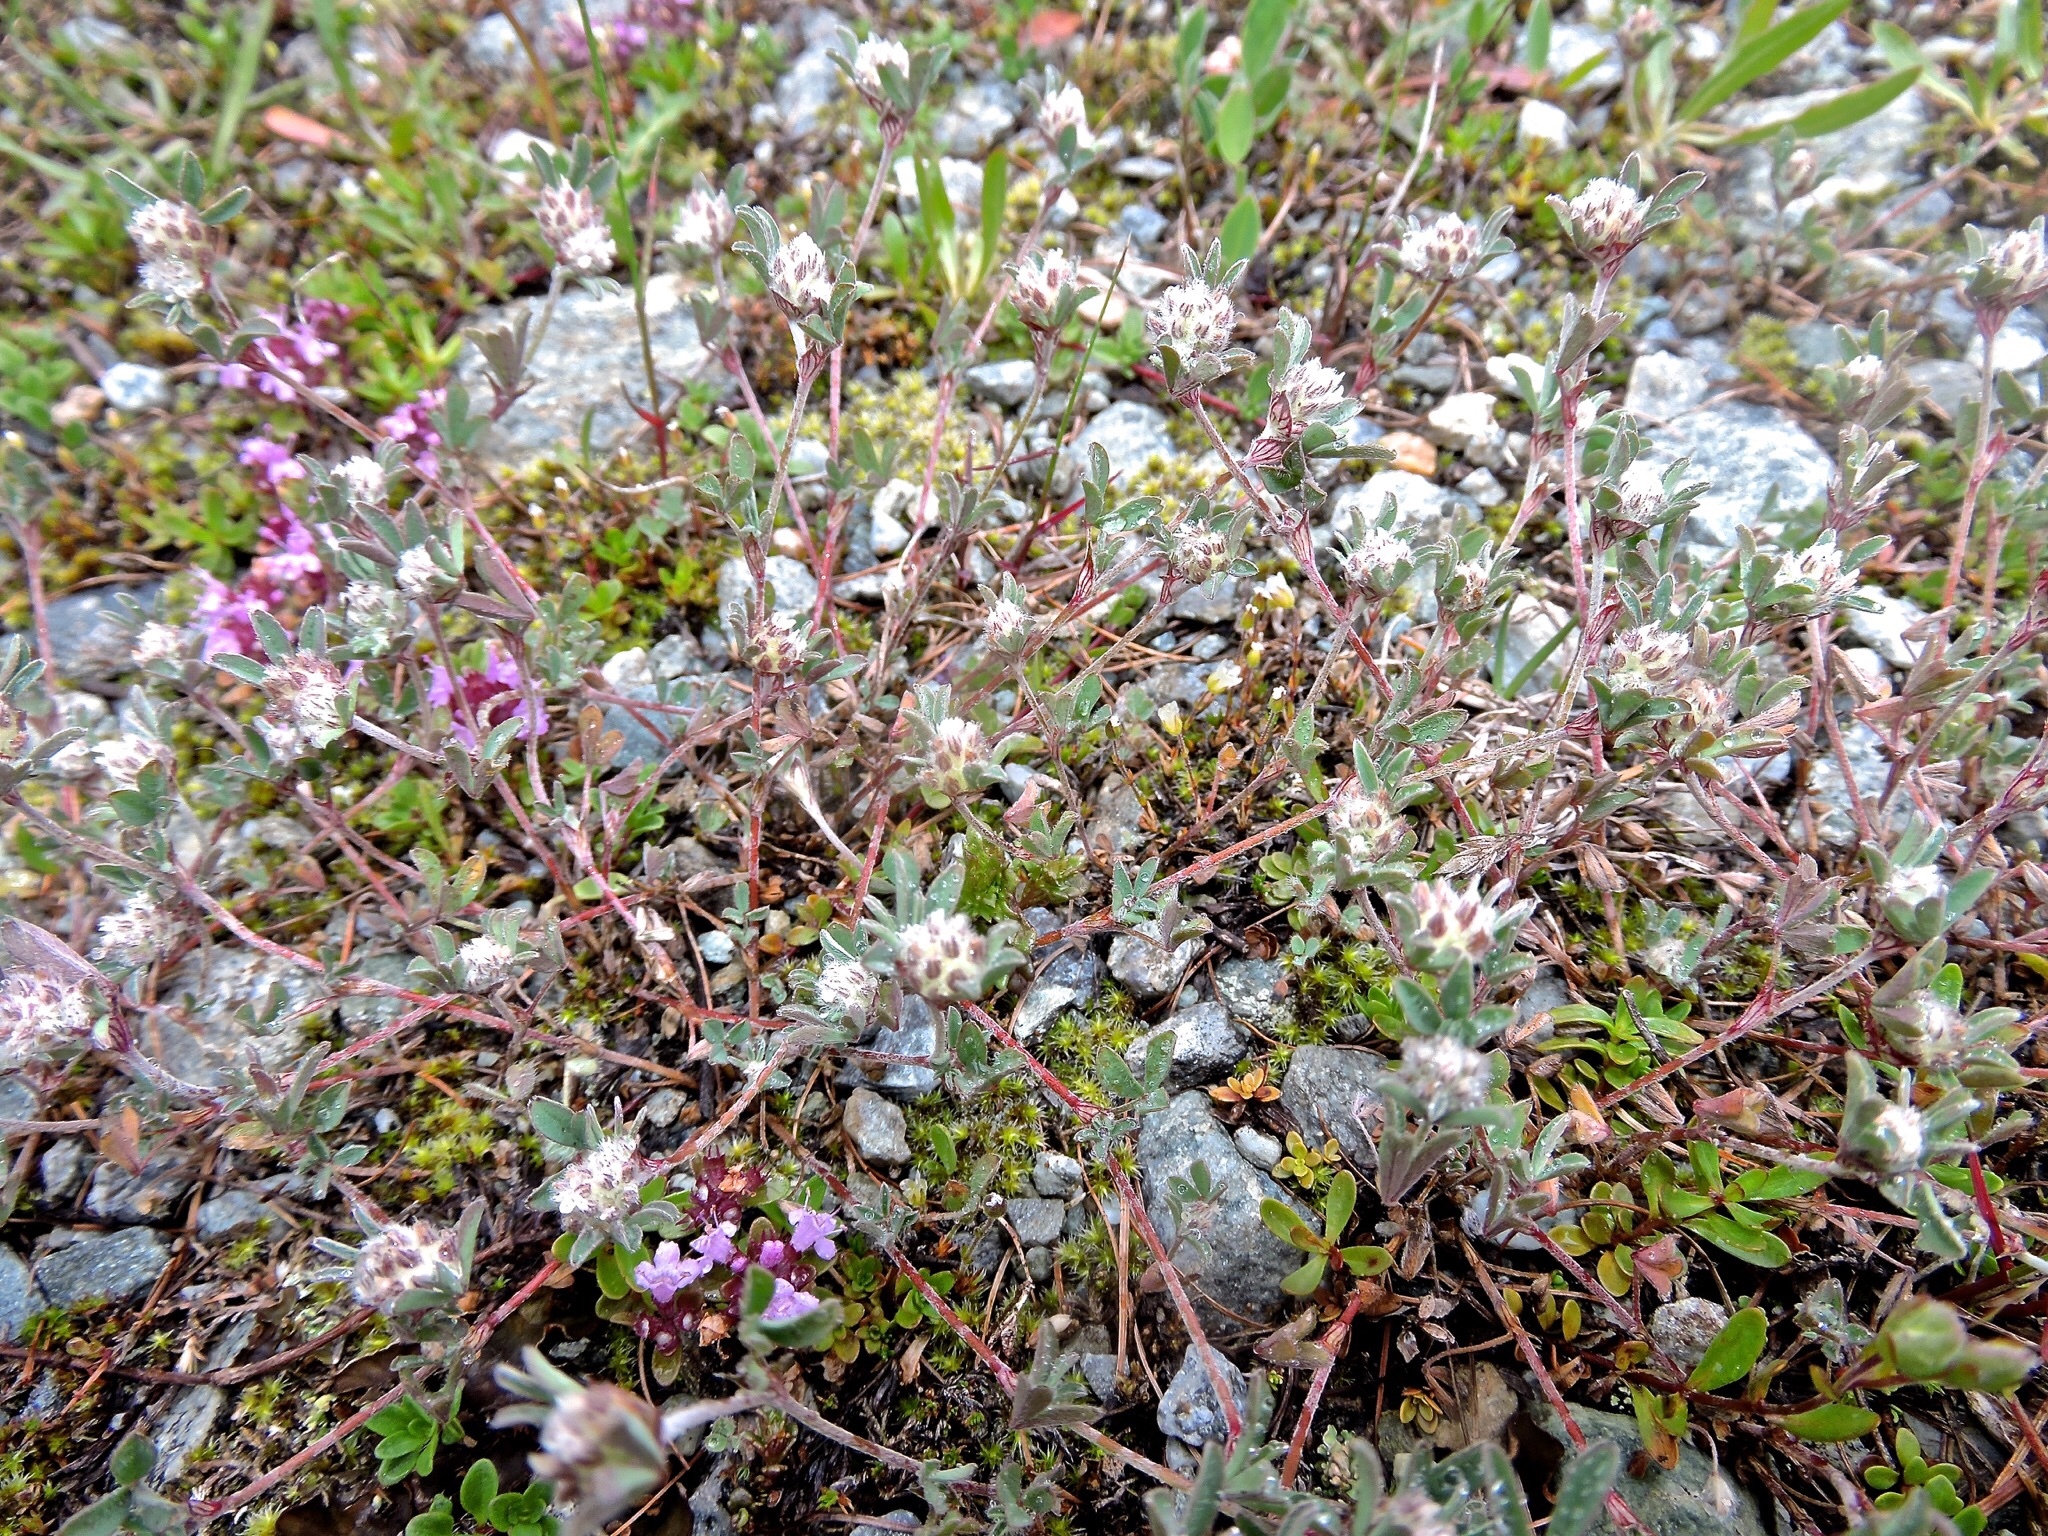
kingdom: Plantae
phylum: Tracheophyta
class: Magnoliopsida
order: Fabales
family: Fabaceae
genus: Trifolium
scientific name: Trifolium saxatile
